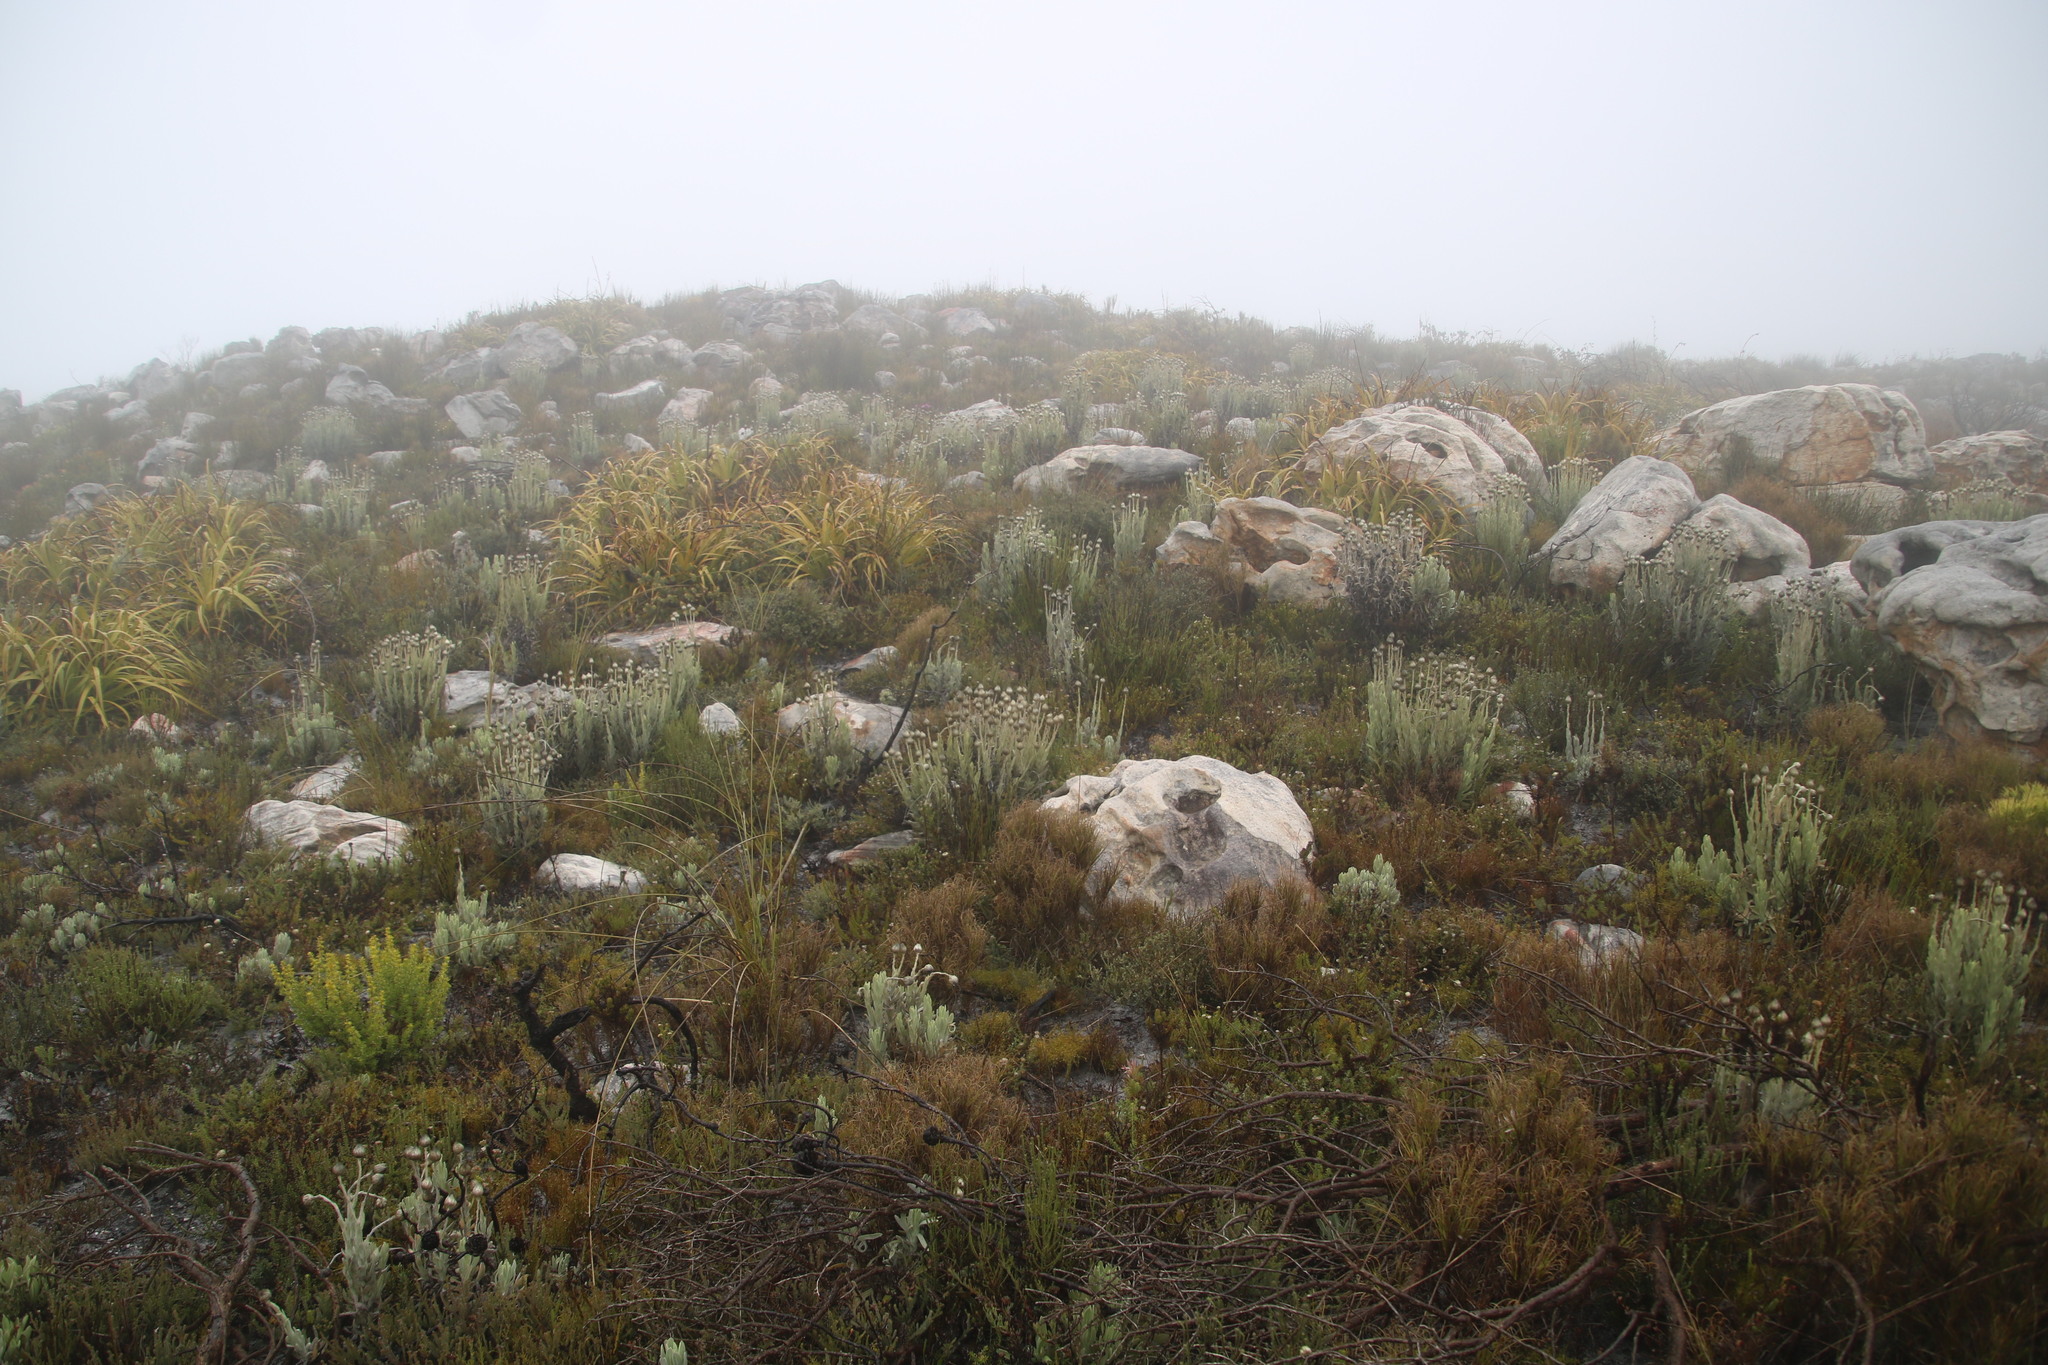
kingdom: Plantae
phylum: Tracheophyta
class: Magnoliopsida
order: Asterales
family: Asteraceae
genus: Syncarpha
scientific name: Syncarpha speciosissima
